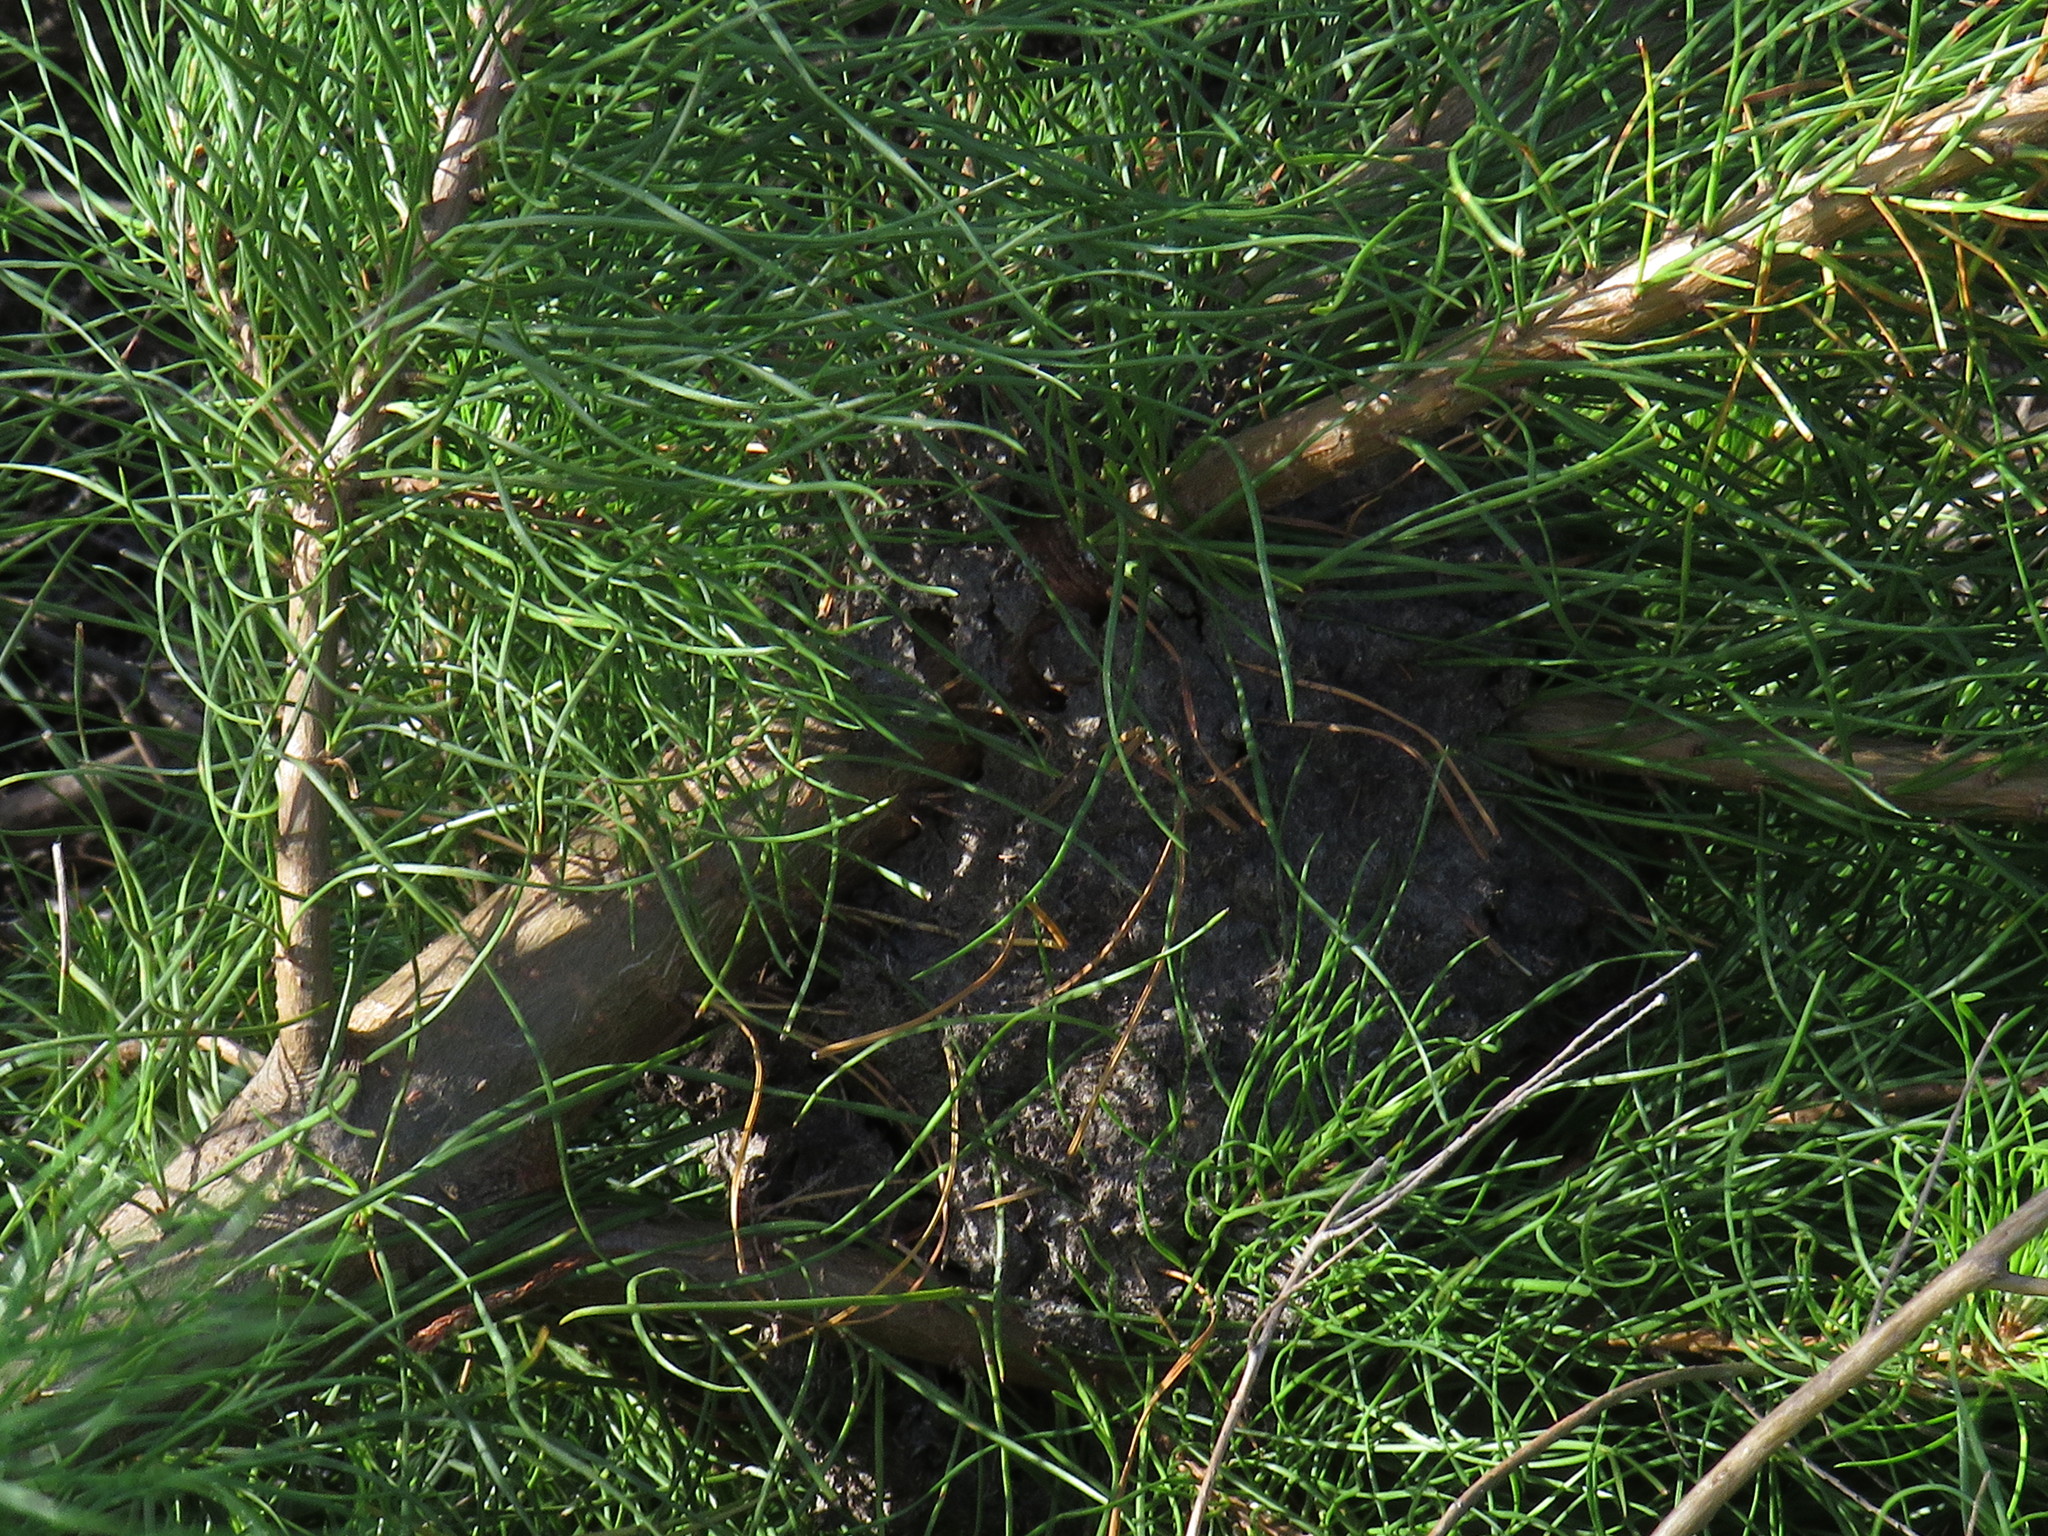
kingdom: Plantae
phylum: Tracheophyta
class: Pinopsida
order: Pinales
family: Pinaceae
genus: Pinus
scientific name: Pinus radiata
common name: Monterey pine
